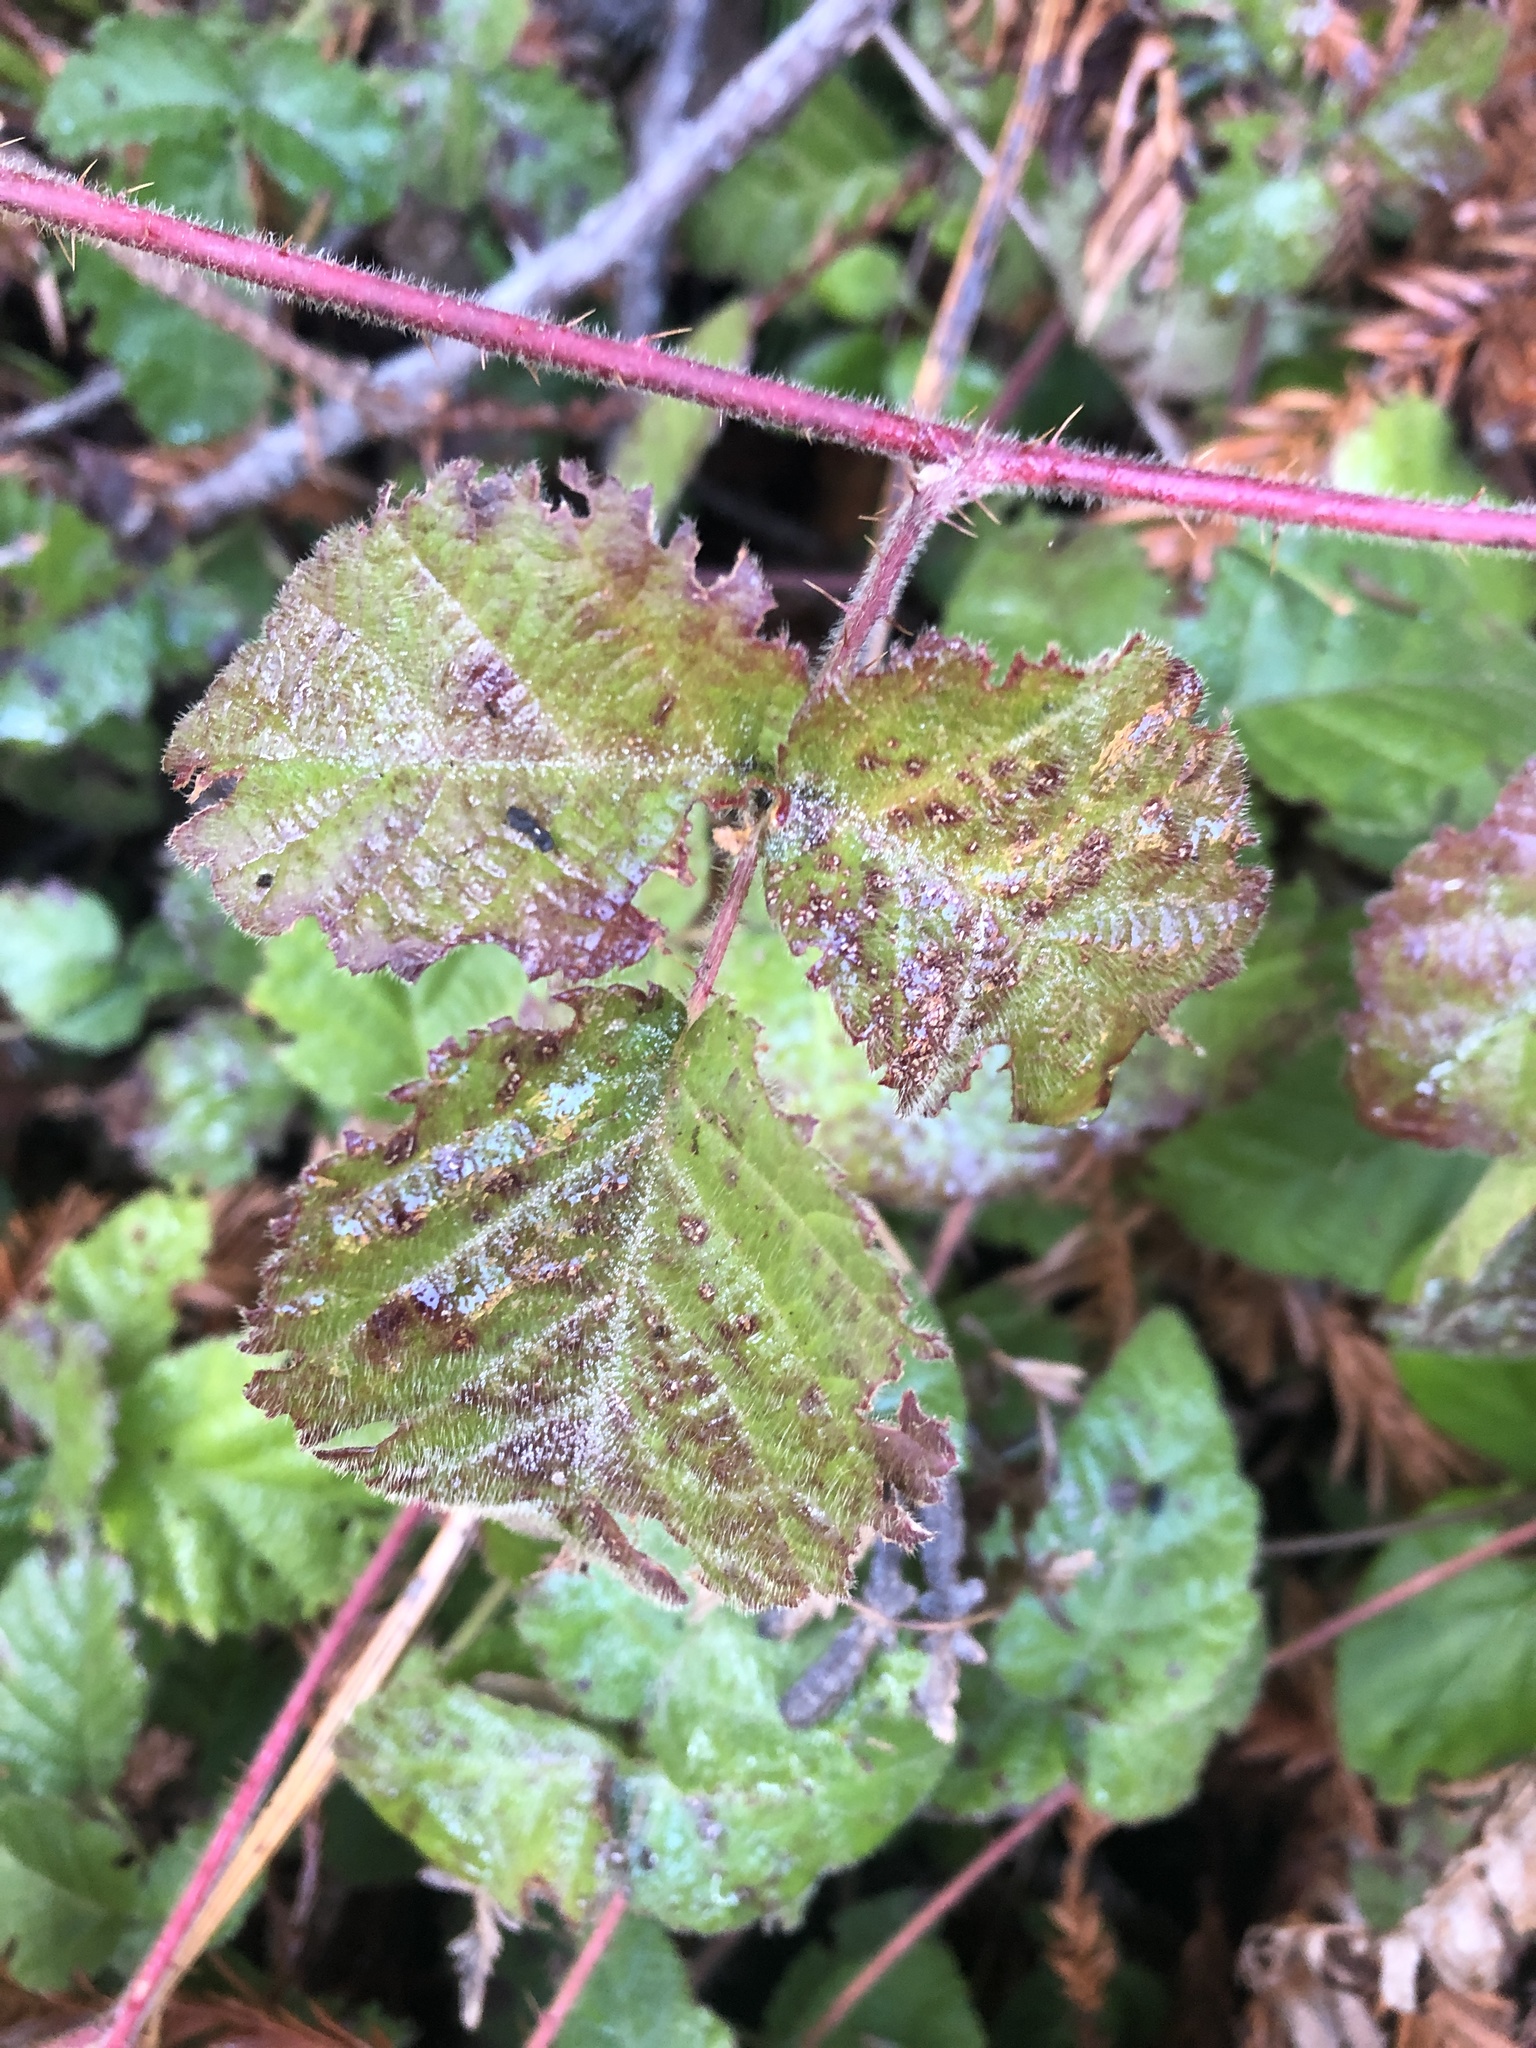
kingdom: Plantae
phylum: Tracheophyta
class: Magnoliopsida
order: Rosales
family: Rosaceae
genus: Rubus
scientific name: Rubus ursinus
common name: Pacific blackberry
